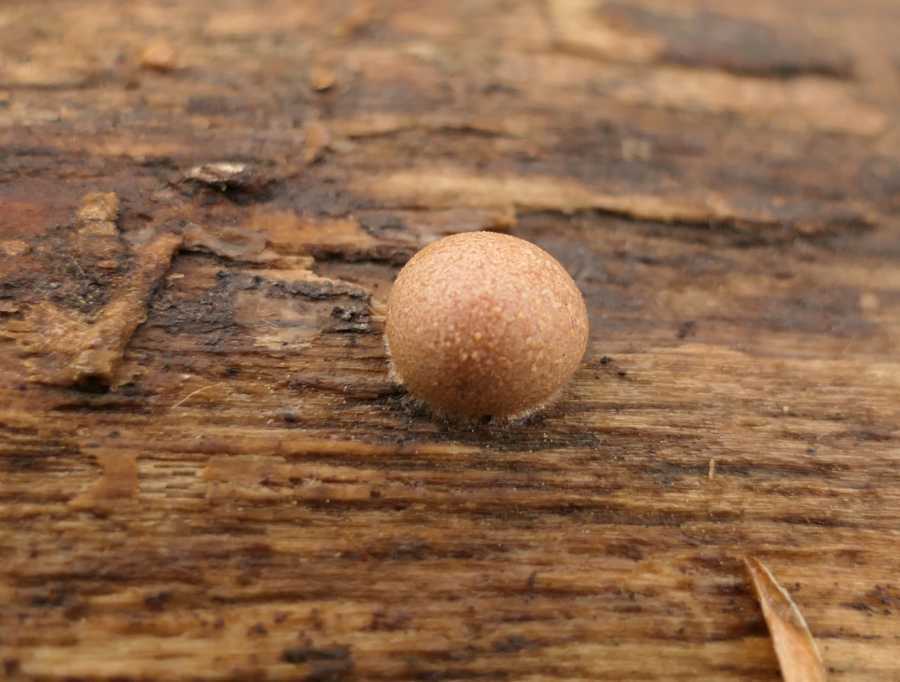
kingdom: Protozoa
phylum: Mycetozoa
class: Myxomycetes
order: Cribrariales
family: Tubiferaceae
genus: Lycogala
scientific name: Lycogala epidendrum
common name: Wolf's milk
